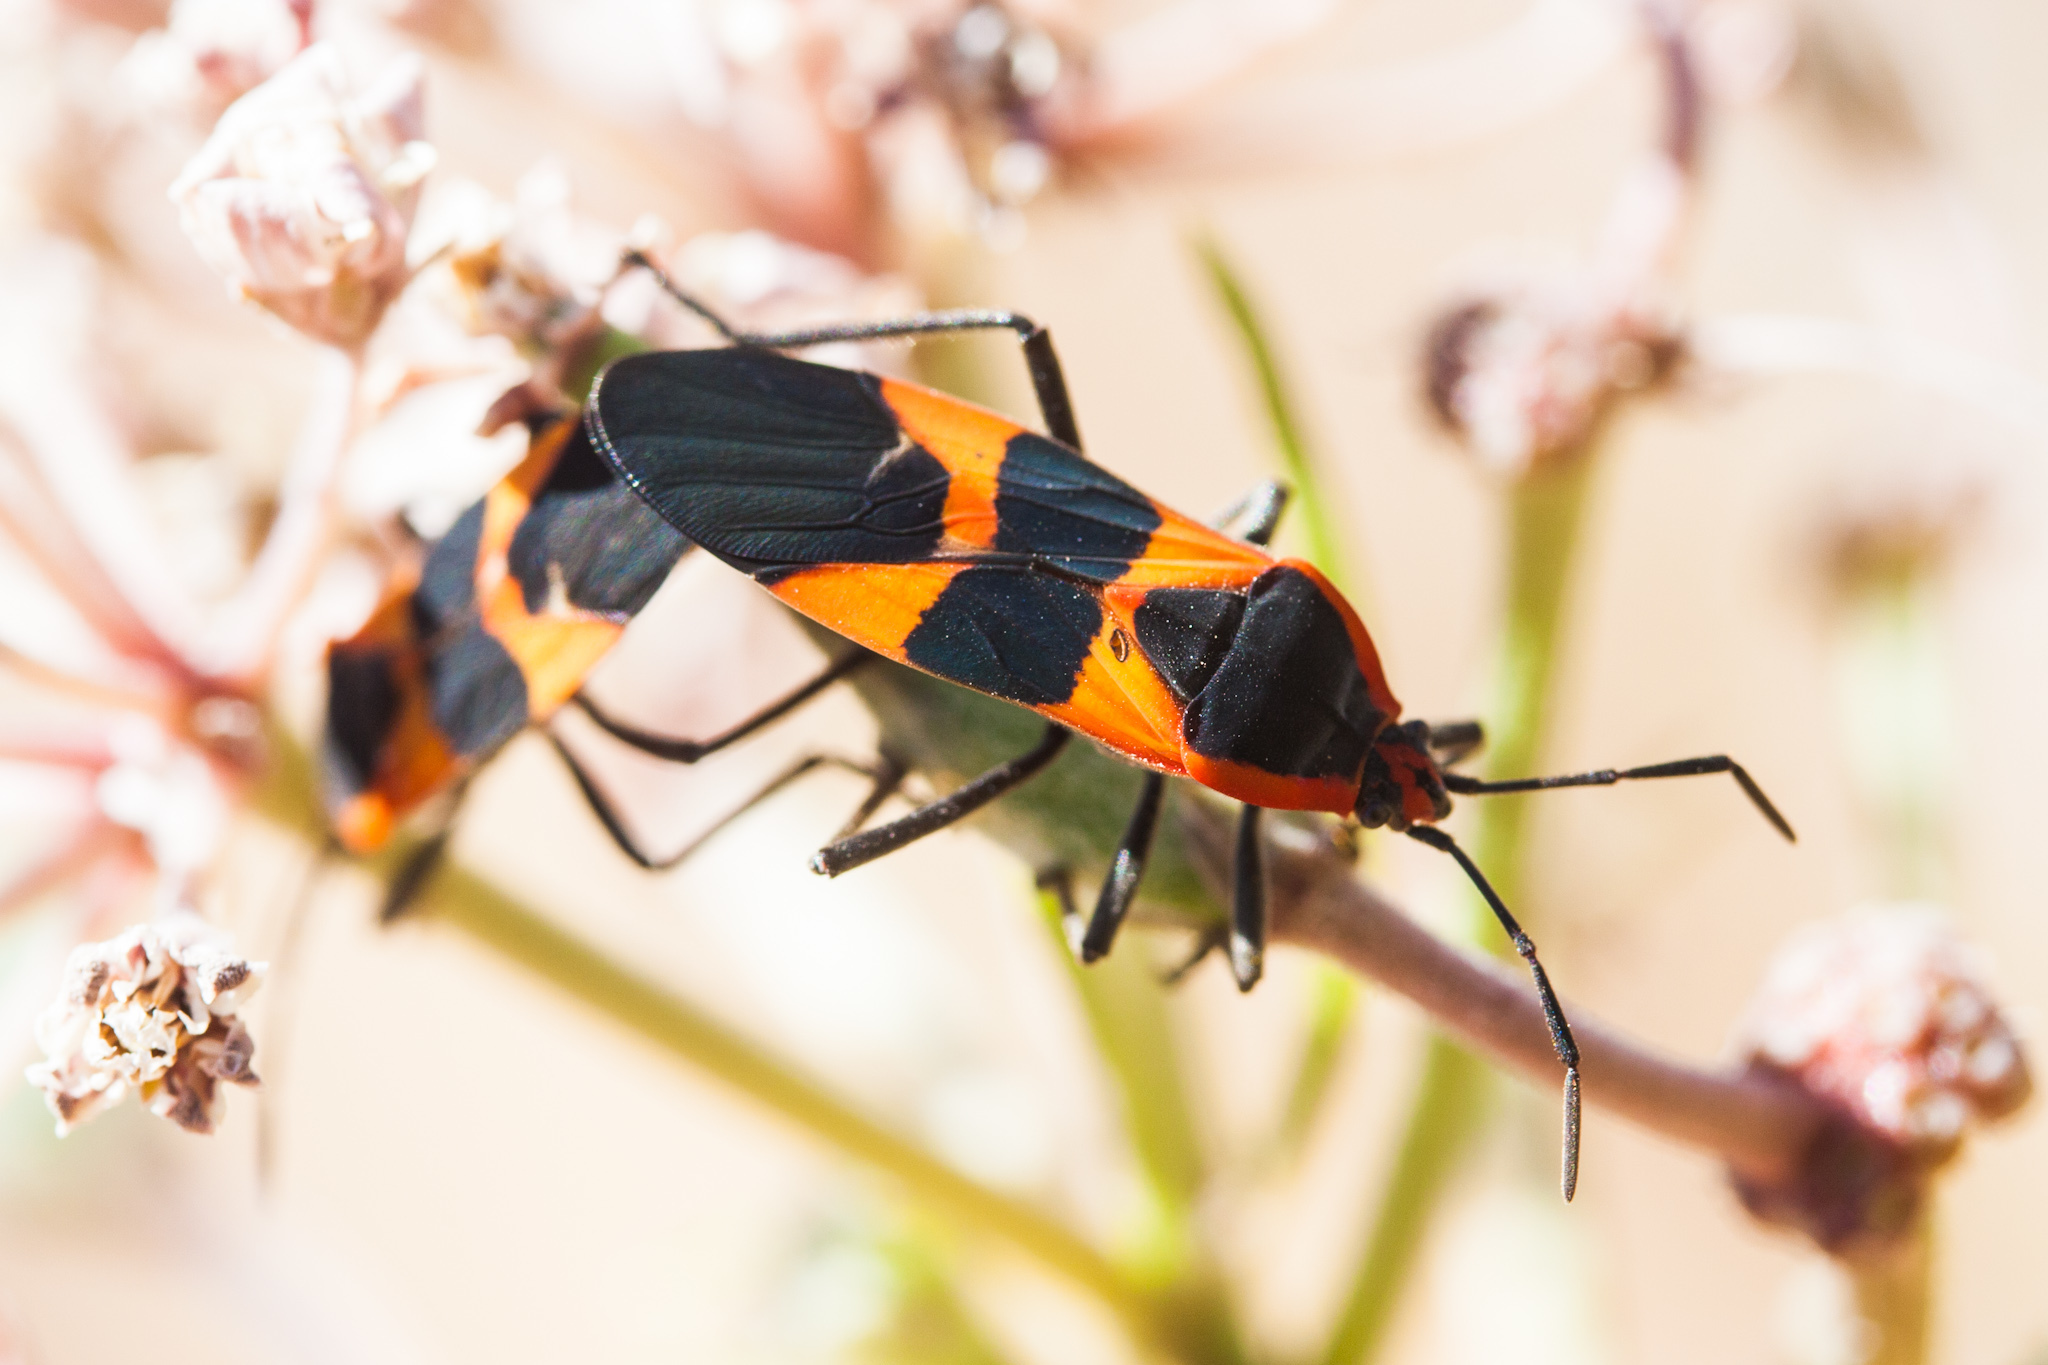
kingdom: Animalia
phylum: Arthropoda
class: Insecta
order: Hemiptera
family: Lygaeidae
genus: Oncopeltus
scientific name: Oncopeltus fasciatus
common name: Large milkweed bug
